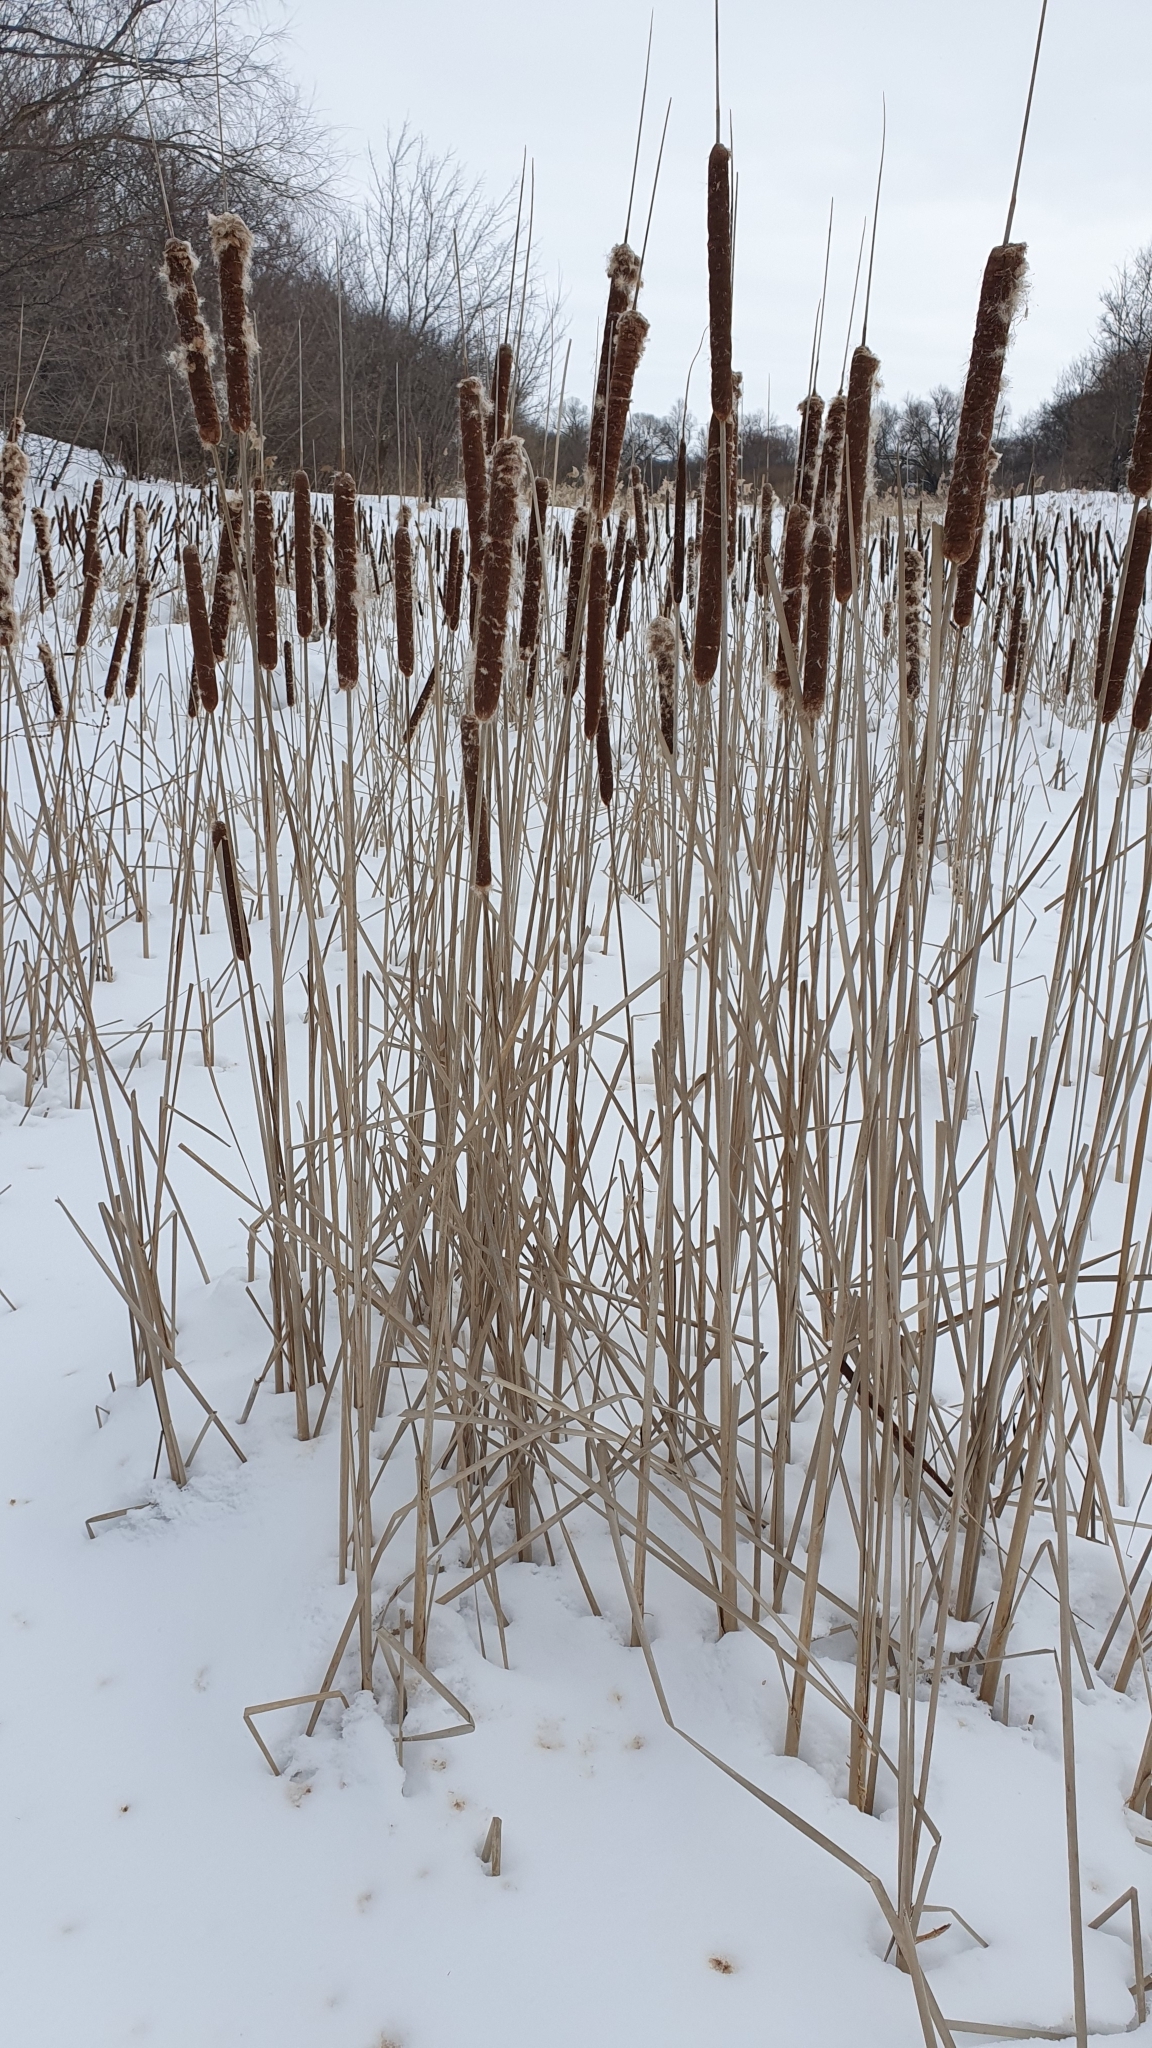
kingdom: Plantae
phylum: Tracheophyta
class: Liliopsida
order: Poales
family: Typhaceae
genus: Typha
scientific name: Typha angustifolia
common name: Lesser bulrush
